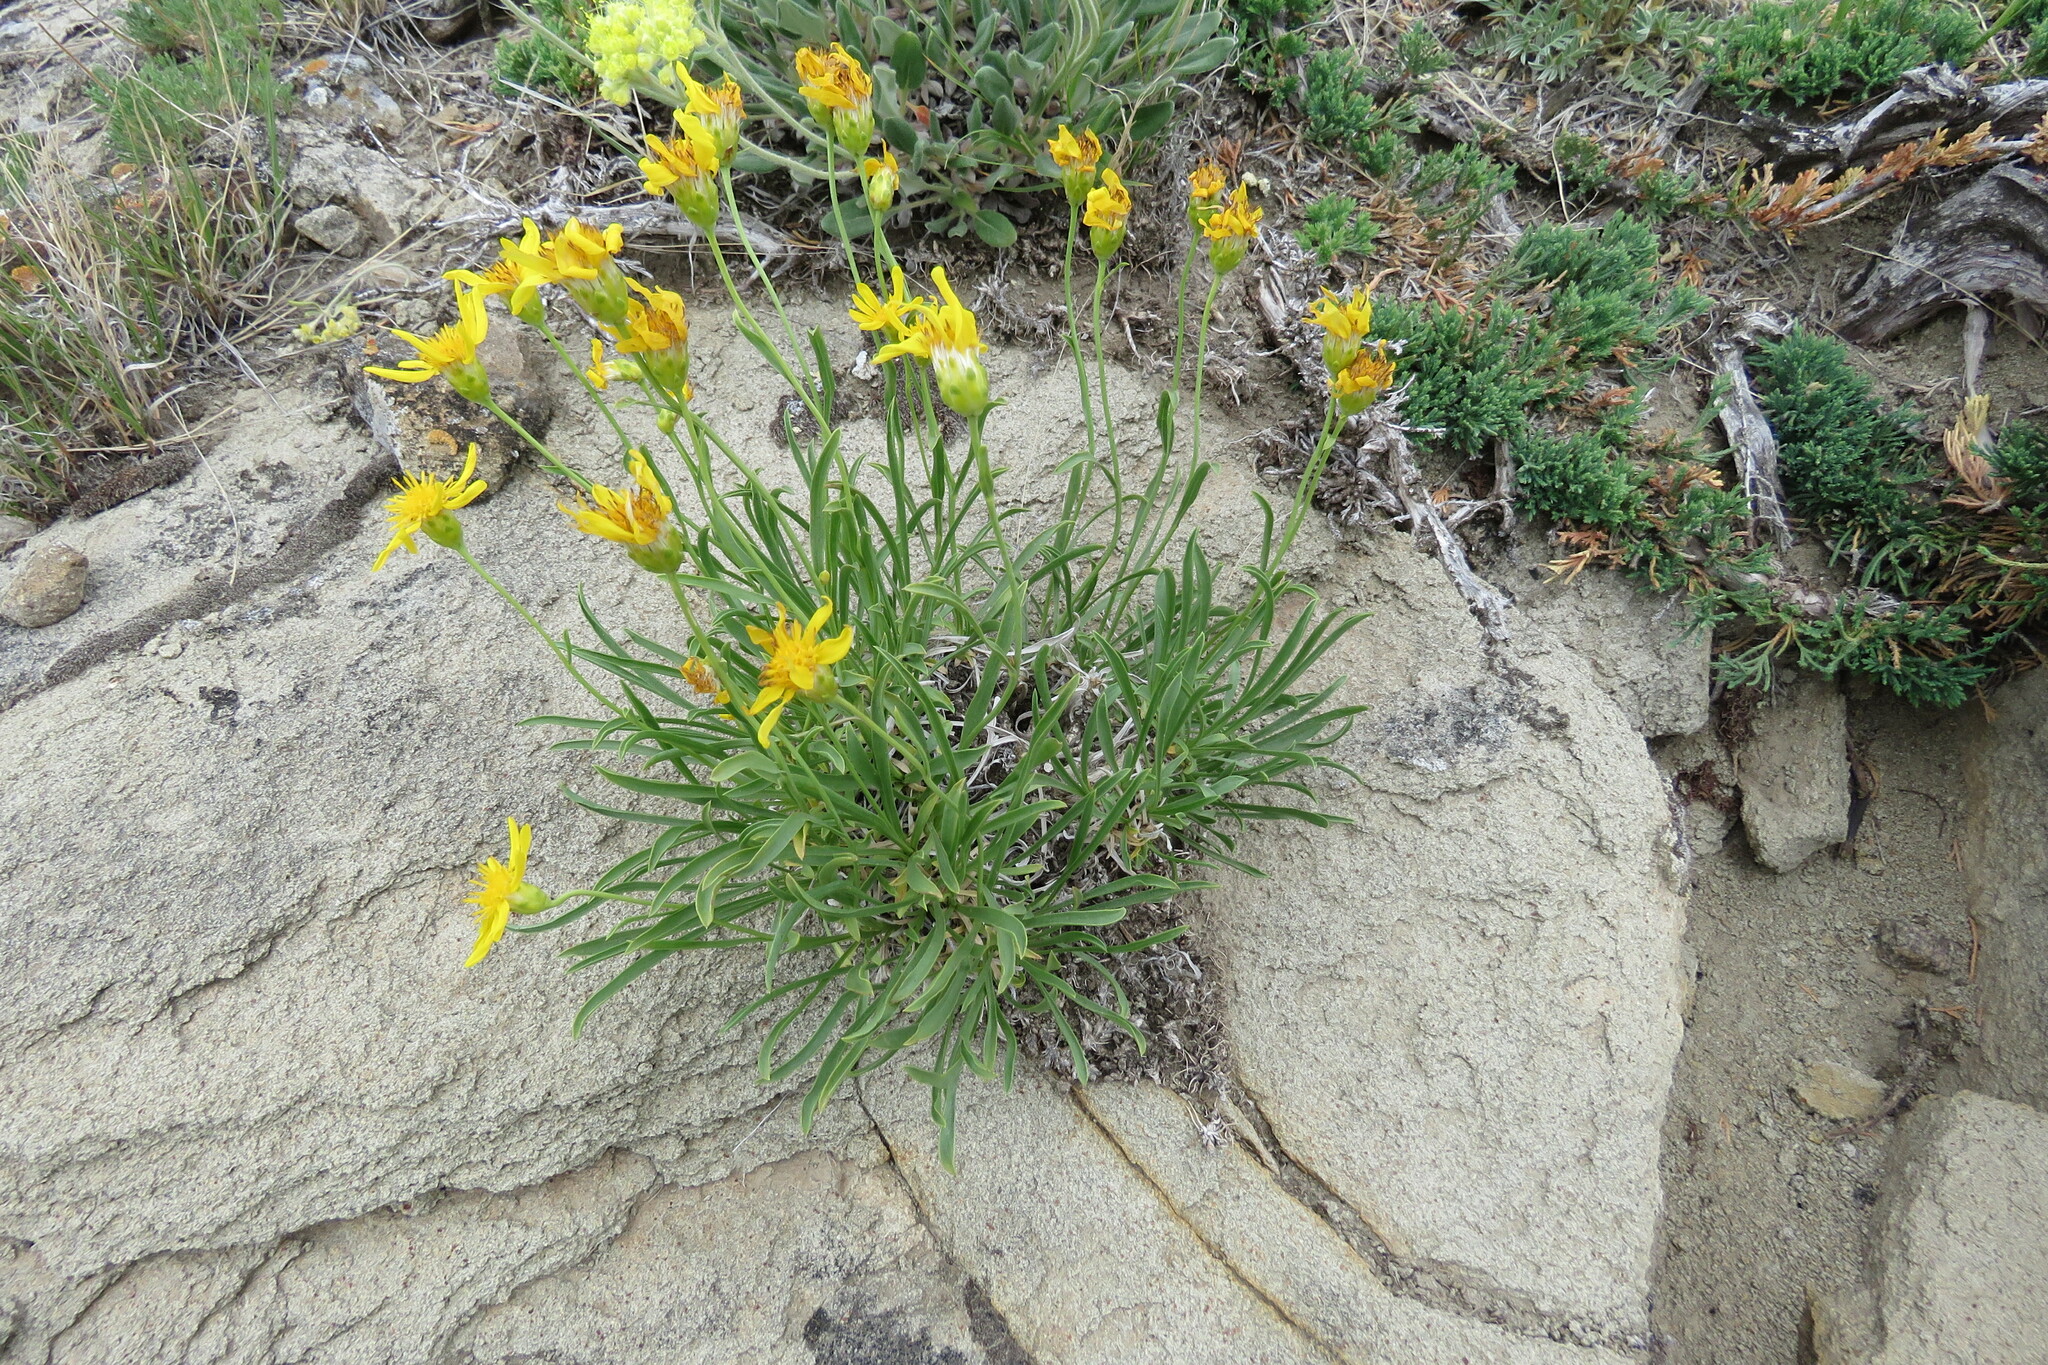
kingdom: Plantae
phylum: Tracheophyta
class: Magnoliopsida
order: Asterales
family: Asteraceae
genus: Stenotus
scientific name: Stenotus armerioides
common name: Thrifty goldenweed
